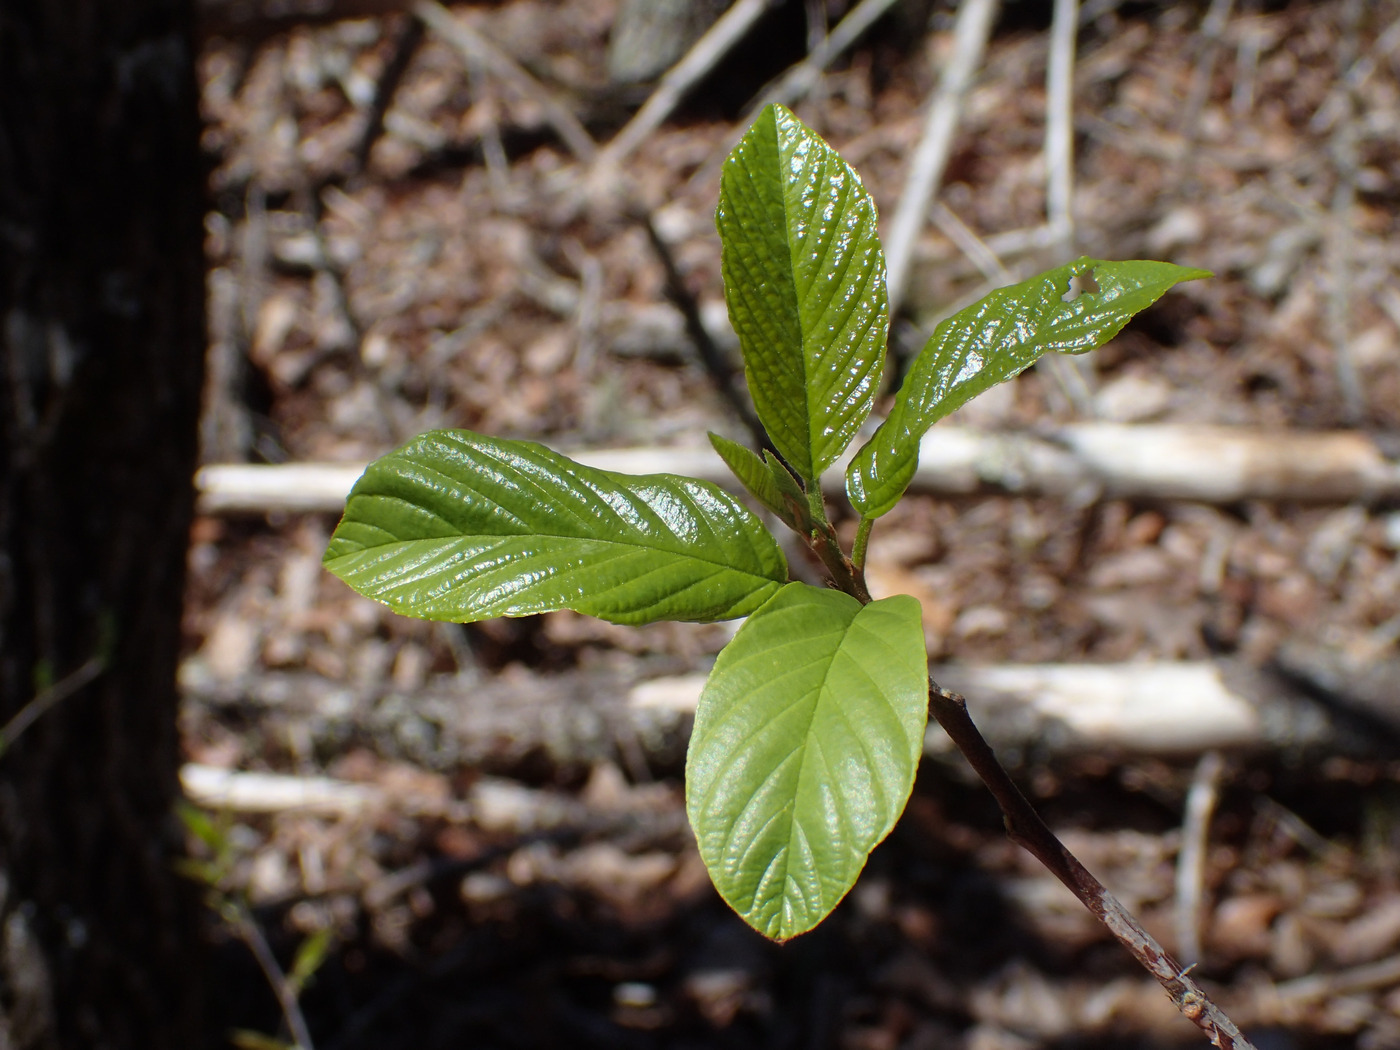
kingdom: Plantae
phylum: Tracheophyta
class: Magnoliopsida
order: Rosales
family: Rhamnaceae
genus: Frangula
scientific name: Frangula caroliniana
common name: Carolina buckthorn
